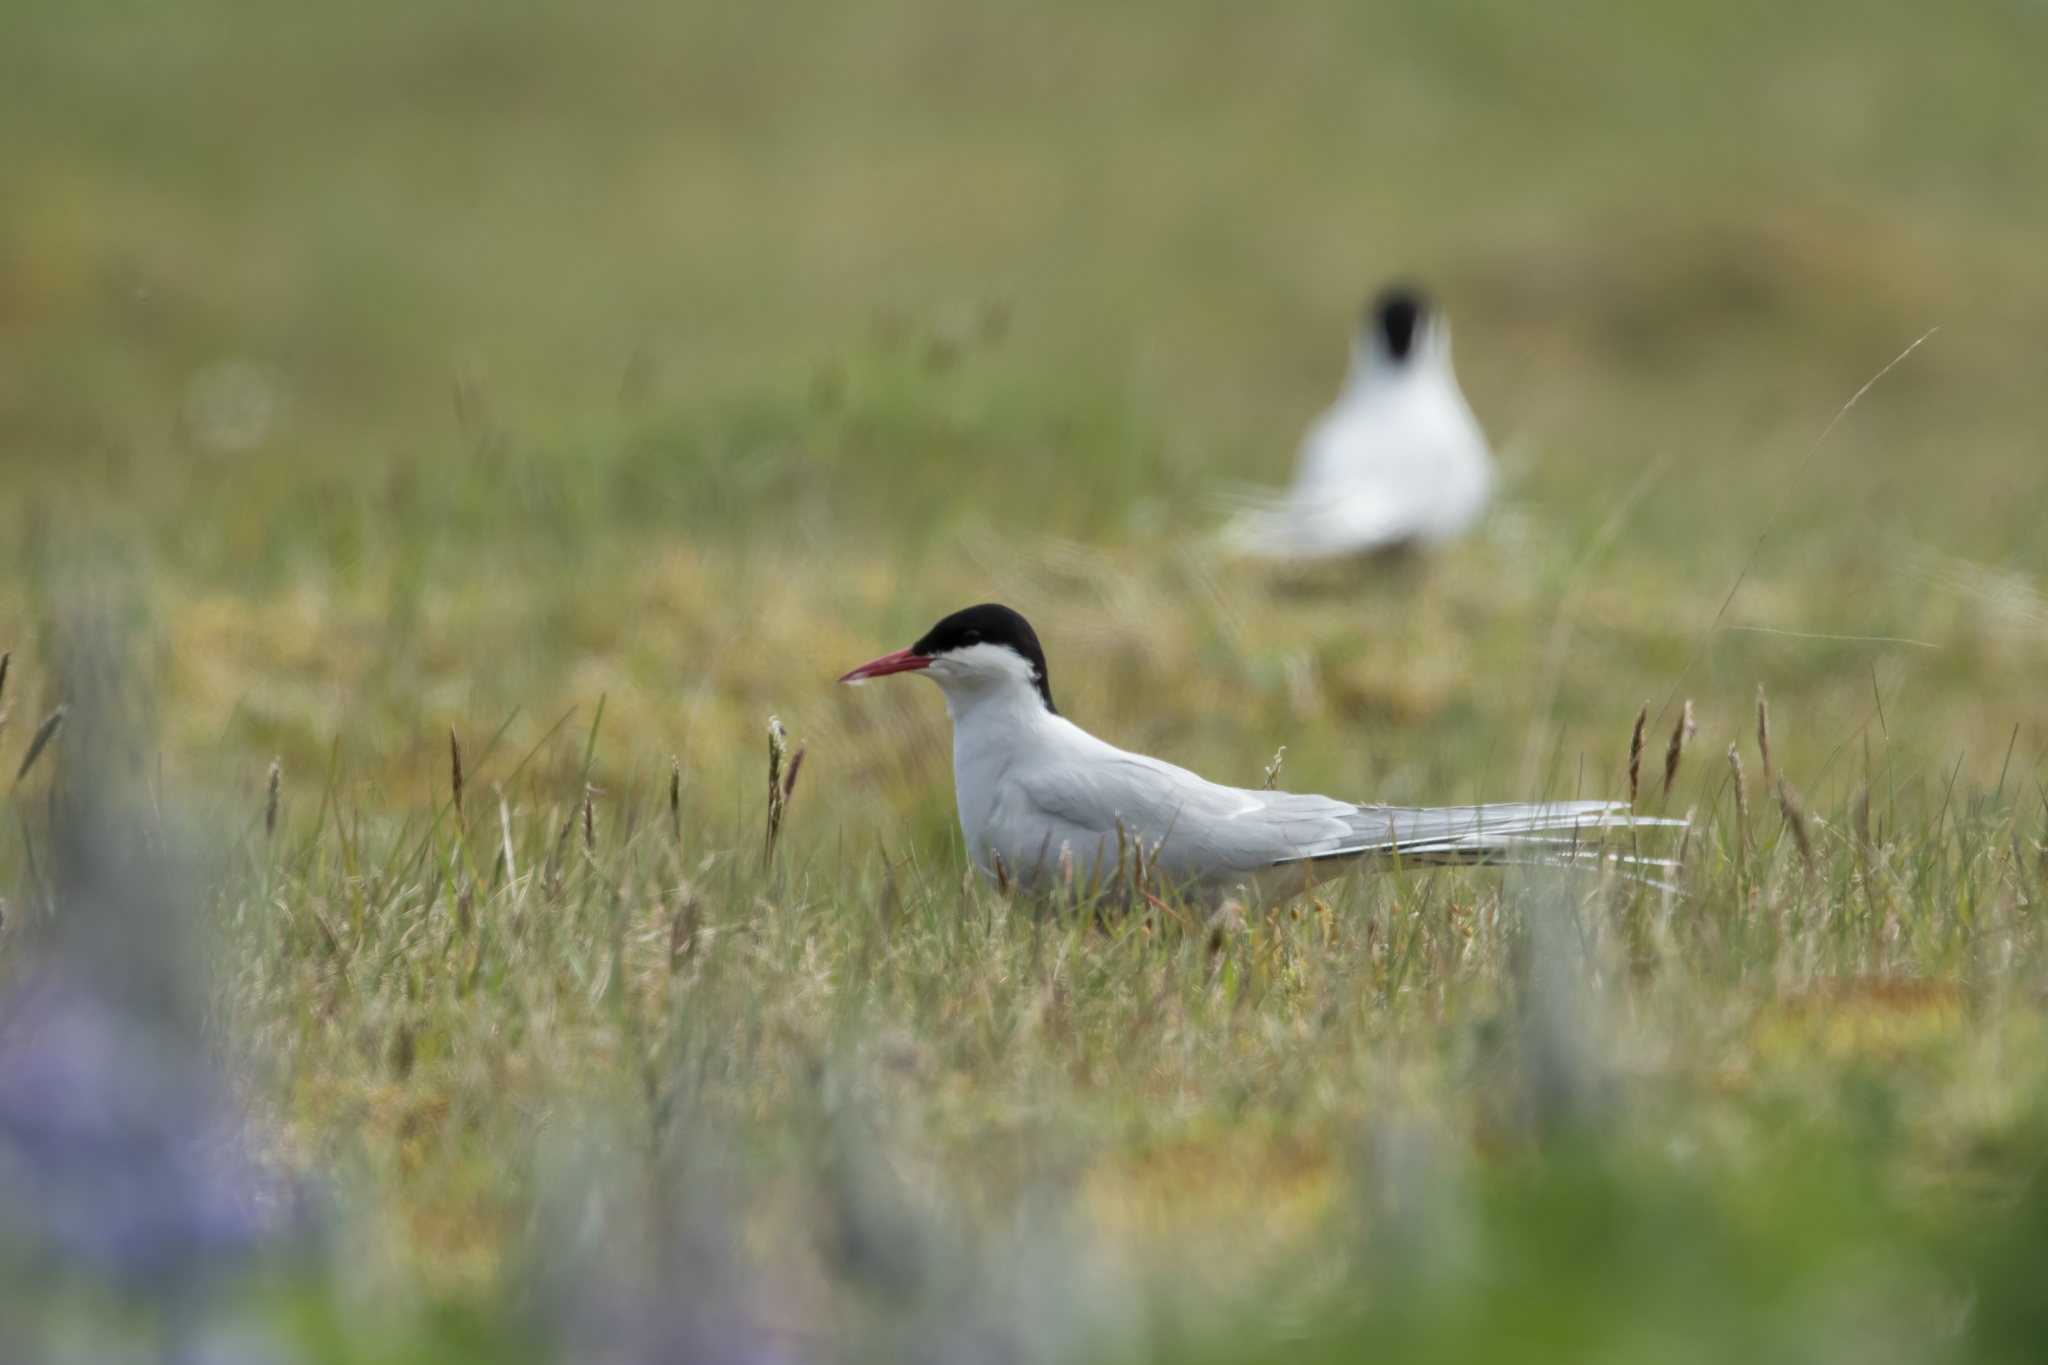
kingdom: Animalia
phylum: Chordata
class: Aves
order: Charadriiformes
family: Laridae
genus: Sterna
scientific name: Sterna paradisaea
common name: Arctic tern
